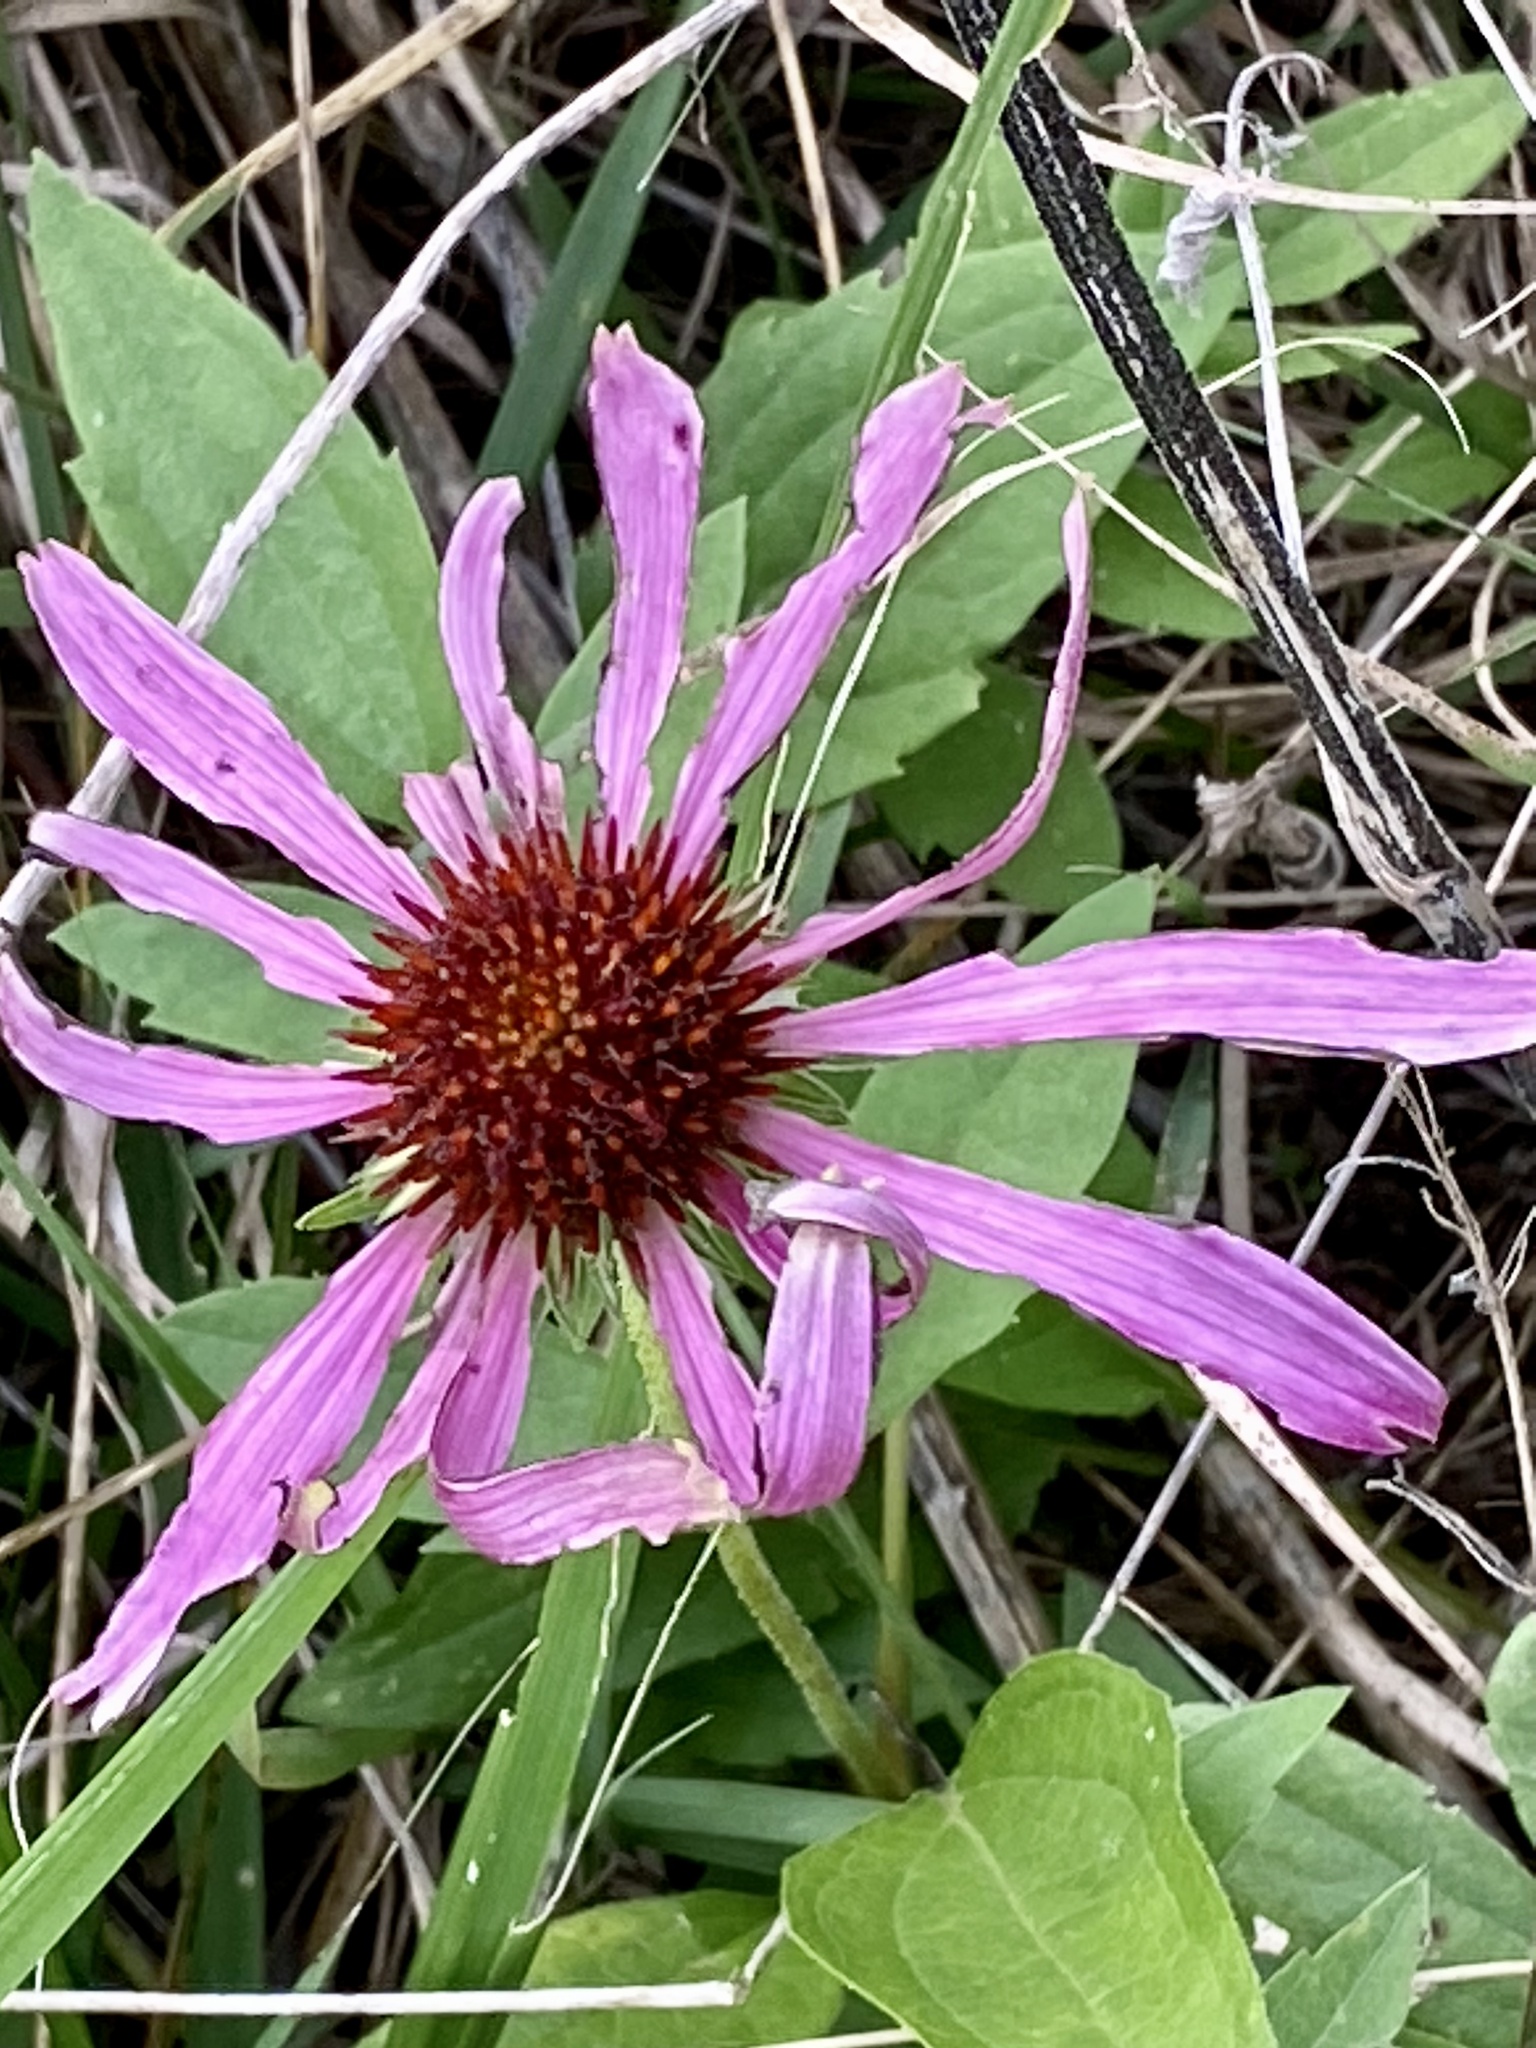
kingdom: Plantae
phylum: Tracheophyta
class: Magnoliopsida
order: Asterales
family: Asteraceae
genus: Echinacea
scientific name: Echinacea purpurea
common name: Broad-leaved purple coneflower
